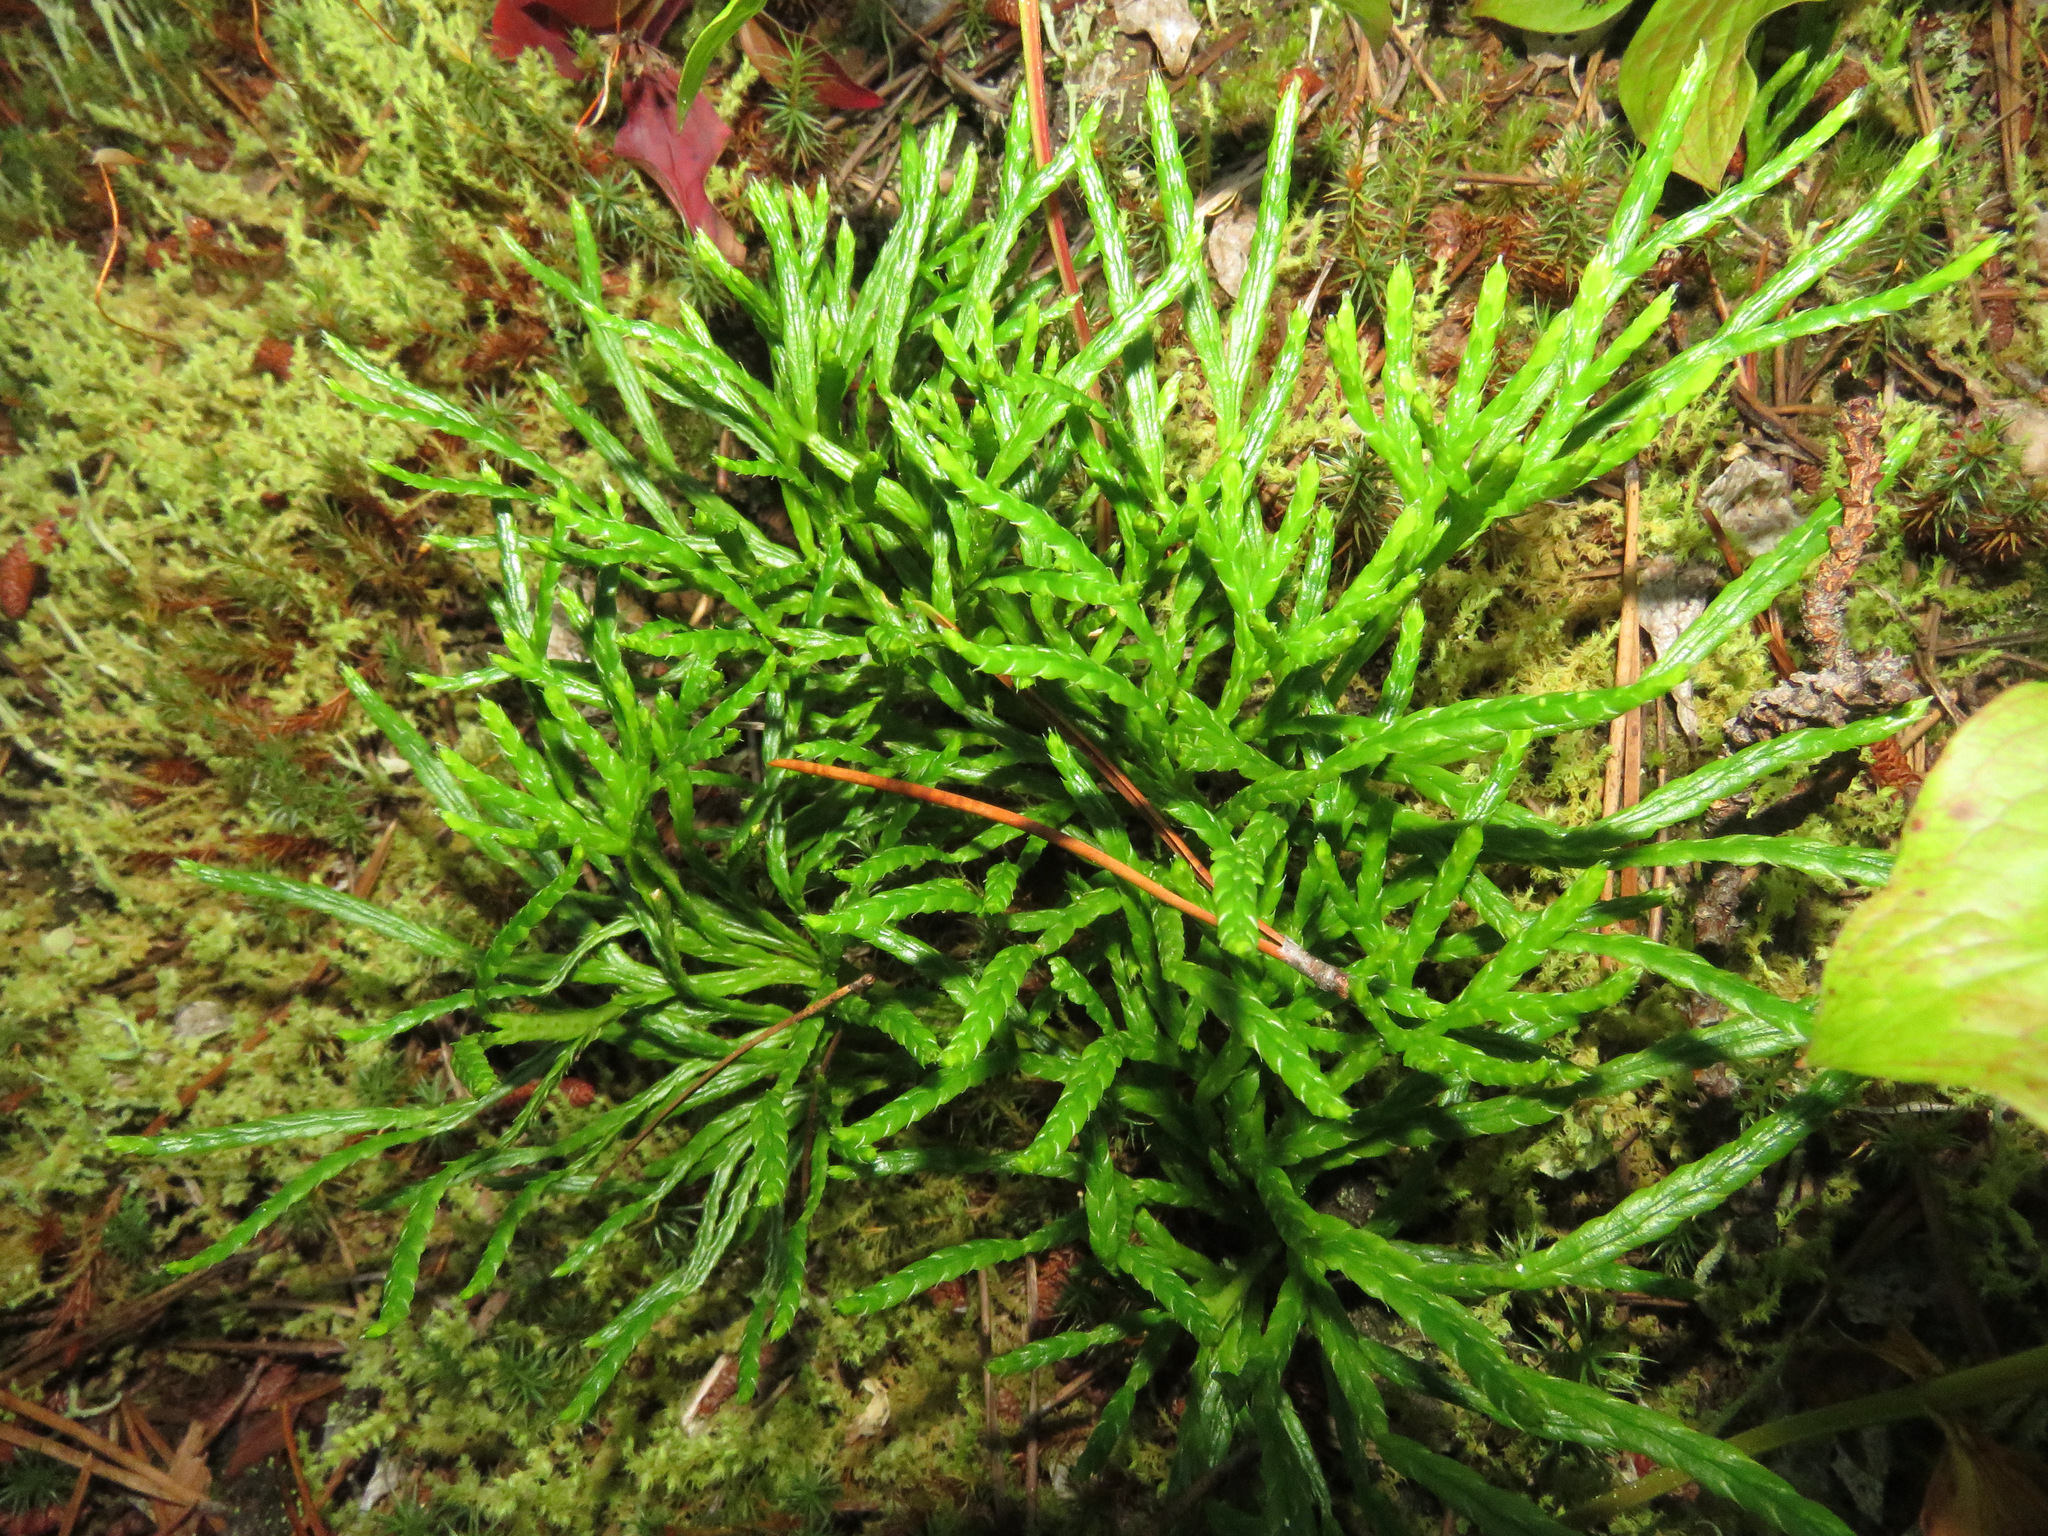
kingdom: Plantae
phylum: Tracheophyta
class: Lycopodiopsida
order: Lycopodiales
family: Lycopodiaceae
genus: Diphasiastrum
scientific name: Diphasiastrum complanatum
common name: Northern running-pine
